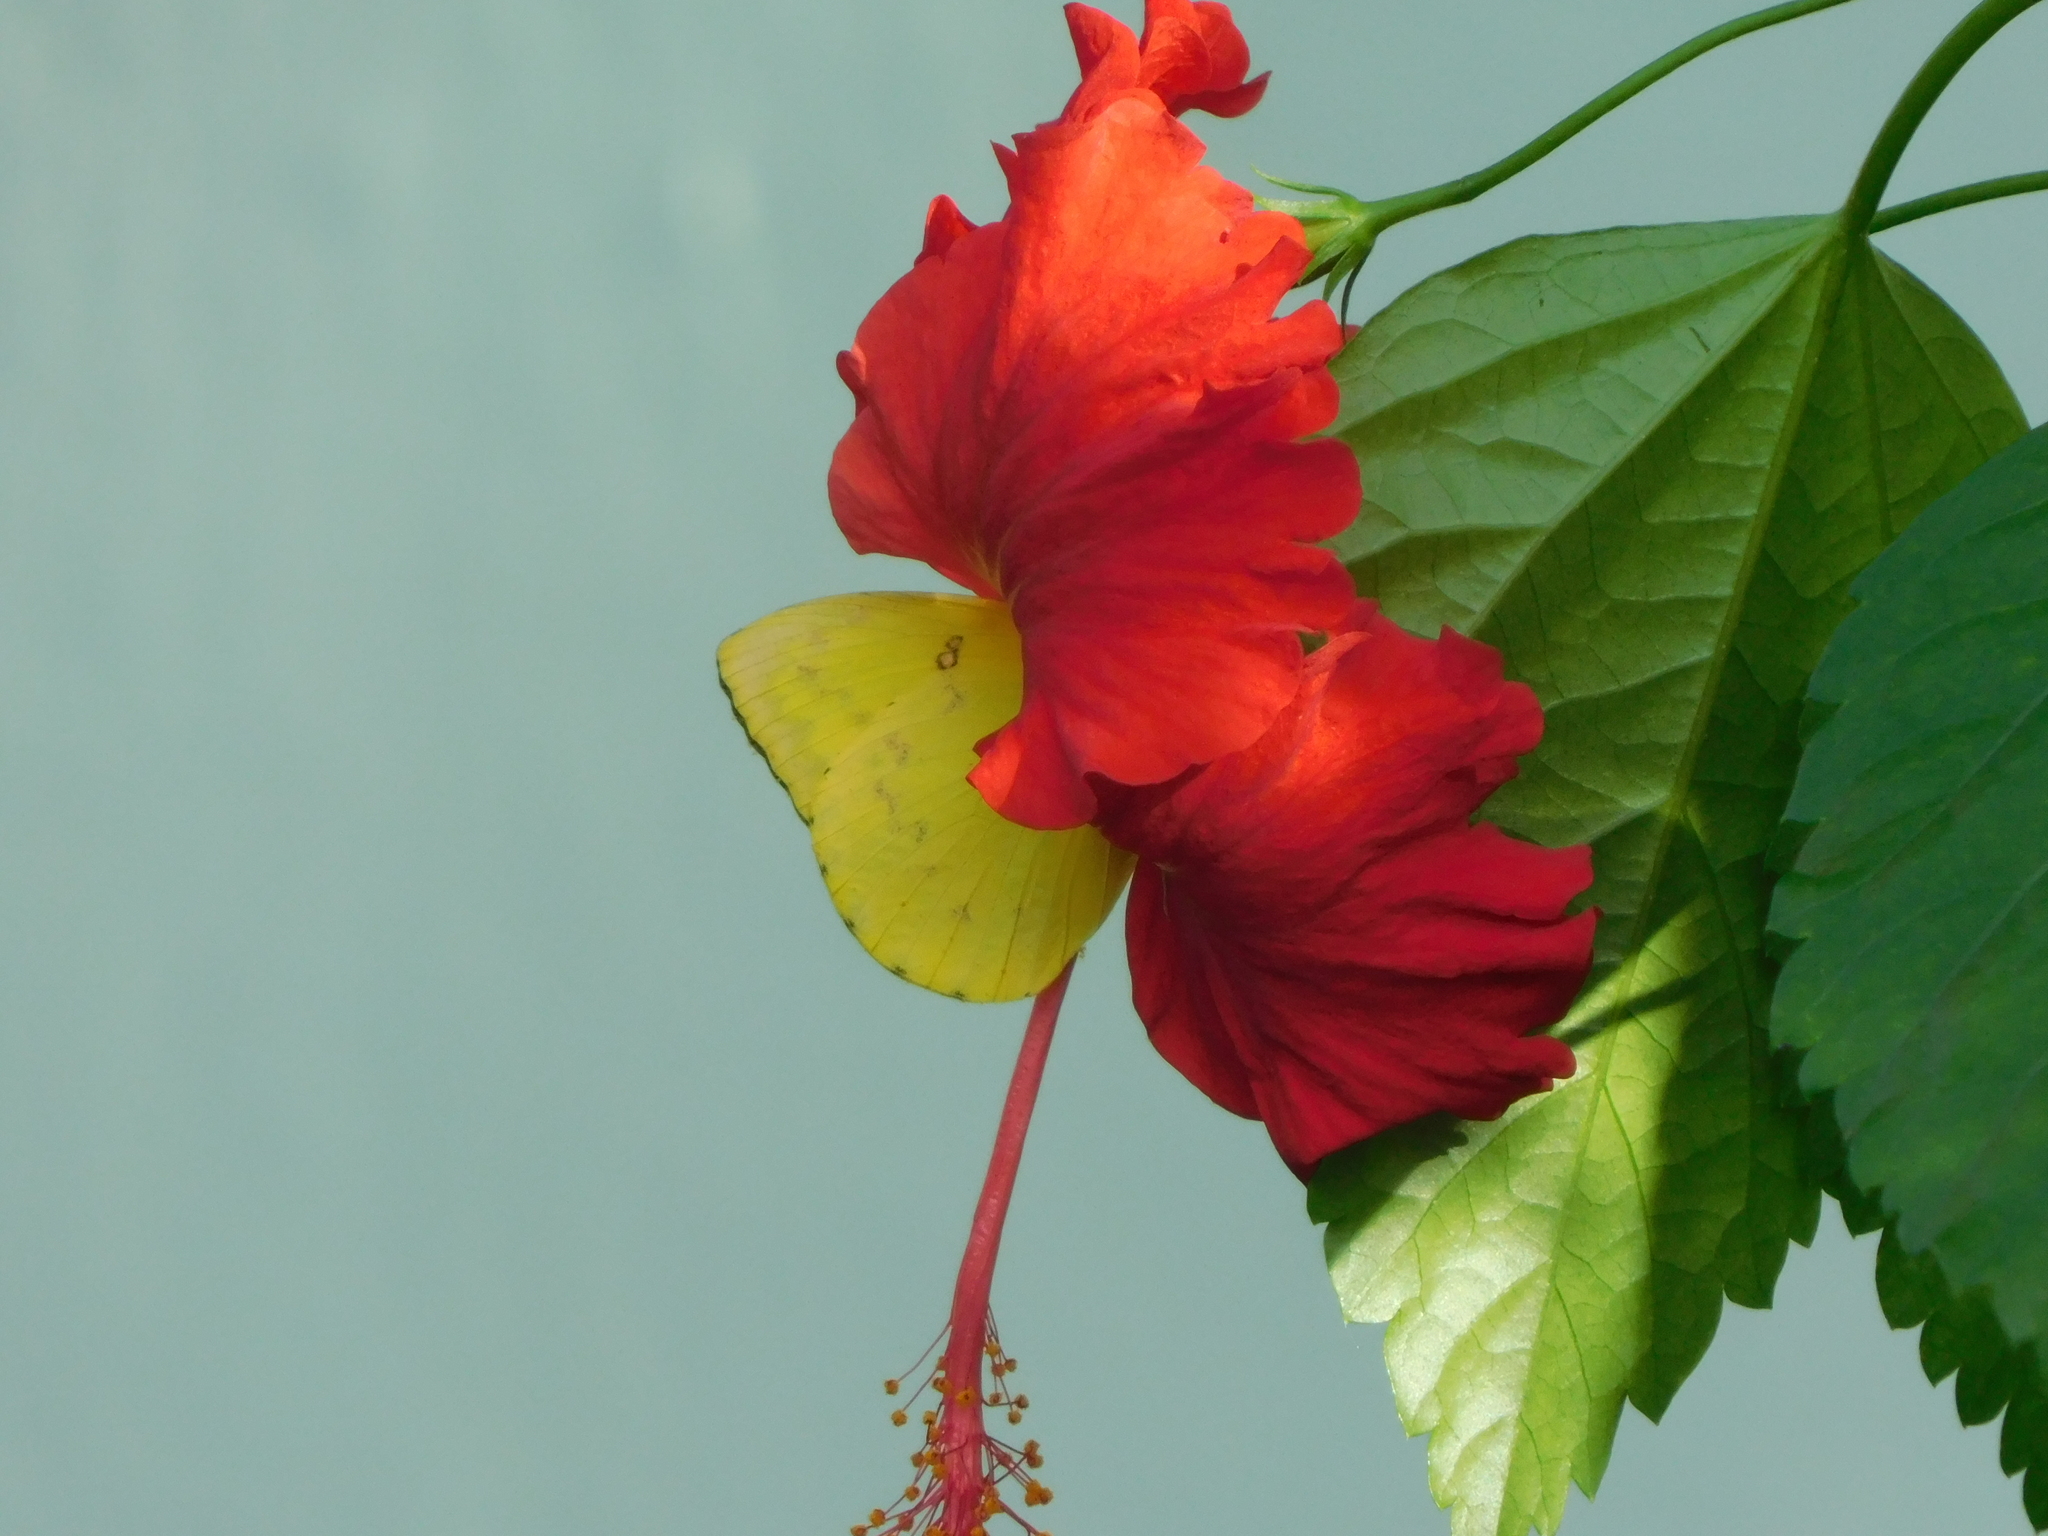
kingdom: Animalia
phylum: Arthropoda
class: Insecta
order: Lepidoptera
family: Pieridae
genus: Catopsilia
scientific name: Catopsilia scylla
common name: Orange emigrant
